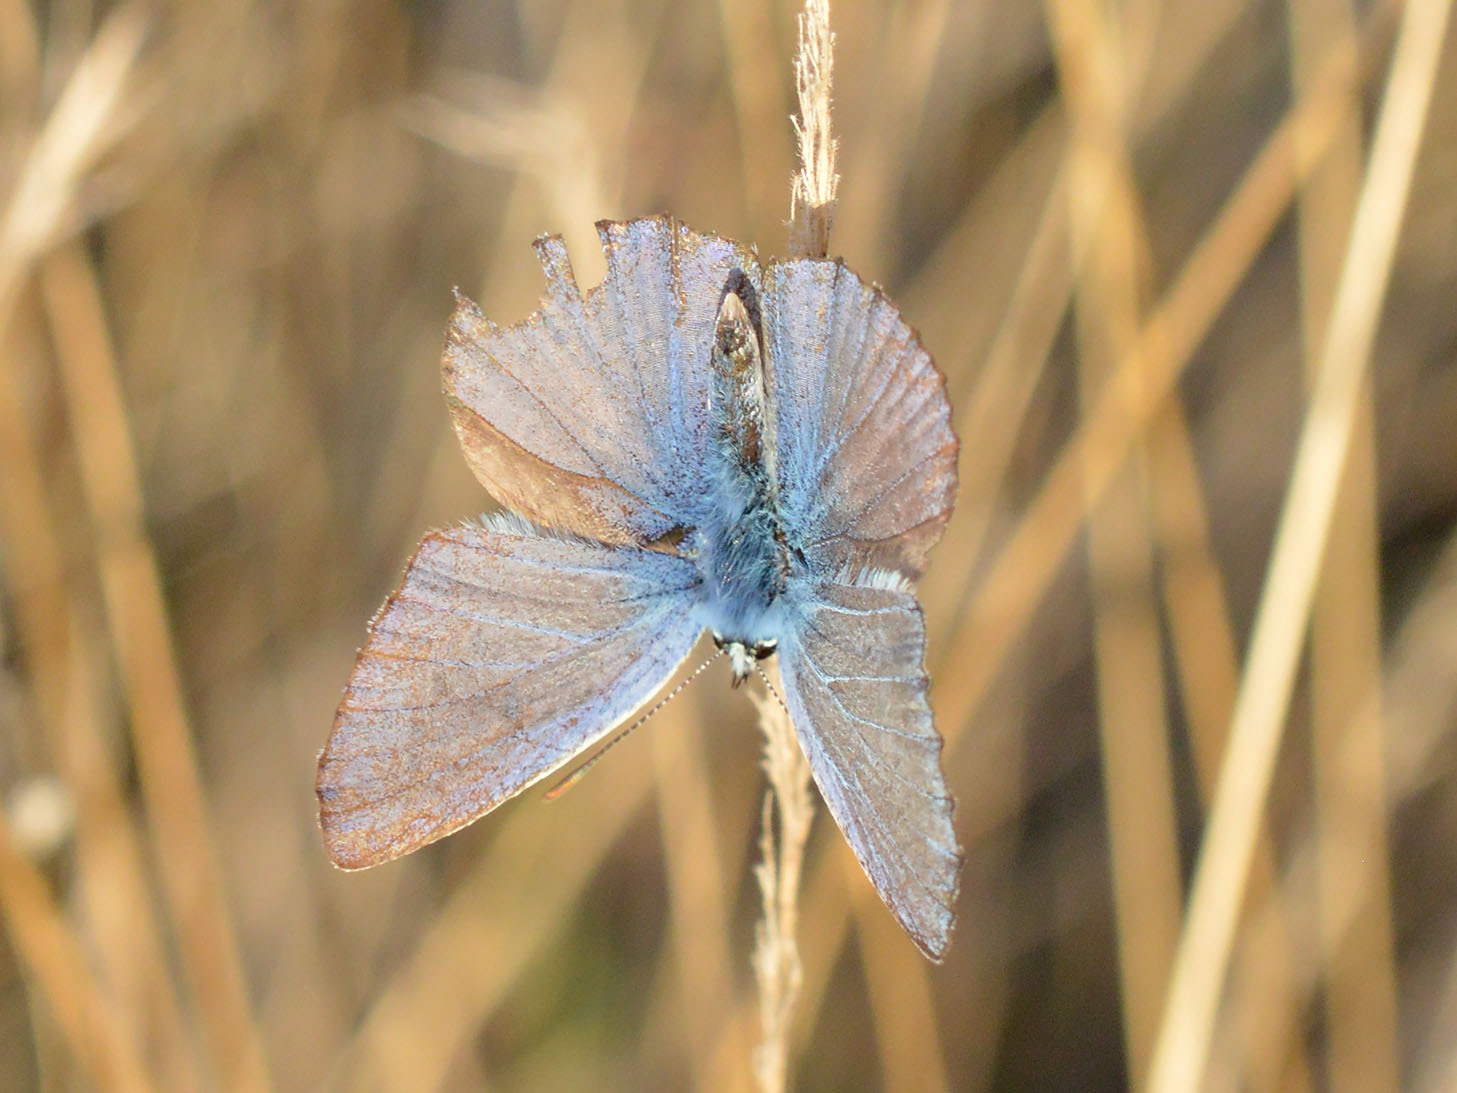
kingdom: Animalia
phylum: Arthropoda
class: Insecta
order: Lepidoptera
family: Lycaenidae
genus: Polyommatus
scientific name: Polyommatus icarus
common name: Common blue
